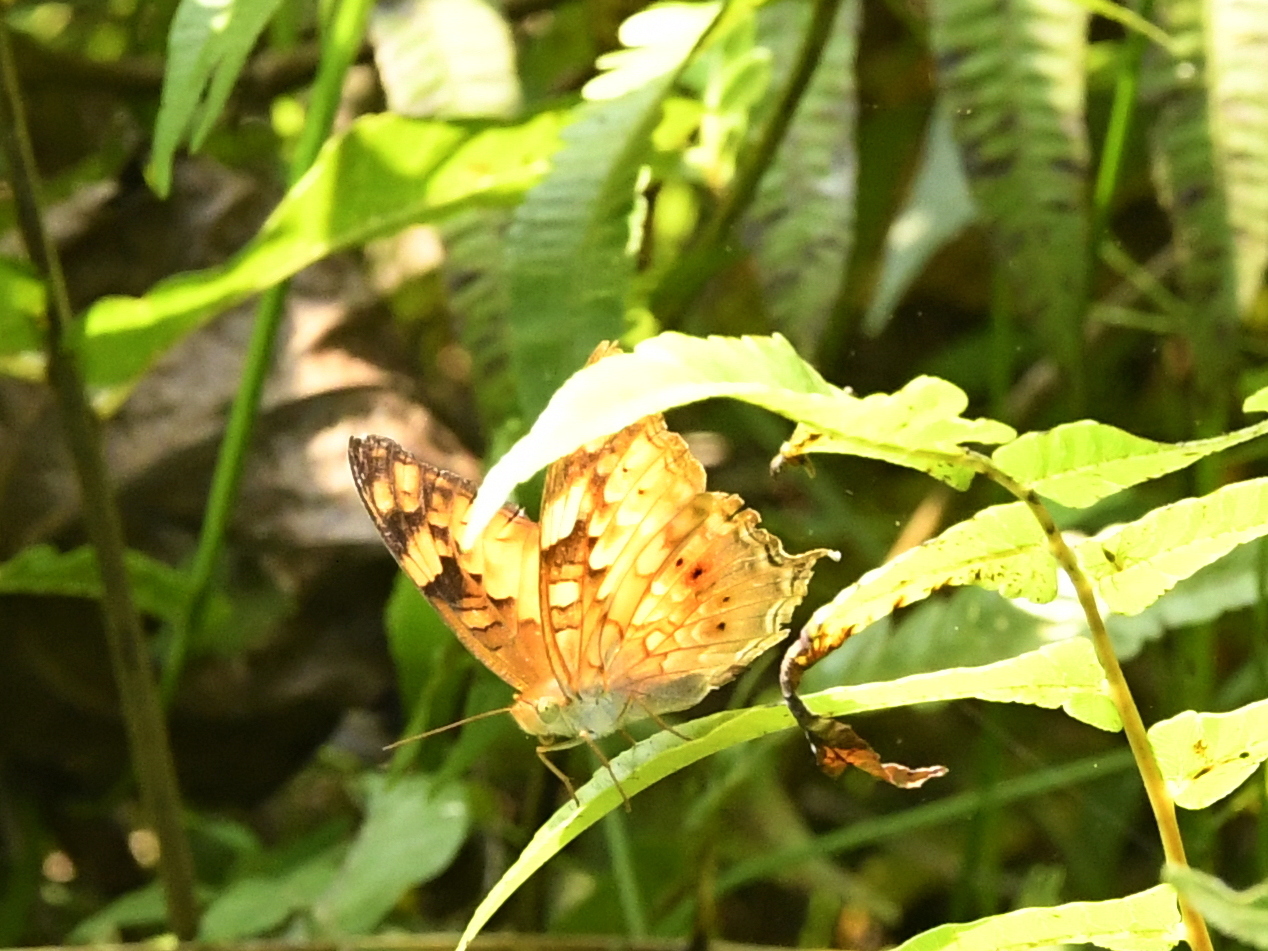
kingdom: Animalia
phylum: Arthropoda
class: Insecta
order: Lepidoptera
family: Nymphalidae
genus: Vagrans
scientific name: Vagrans sinha
